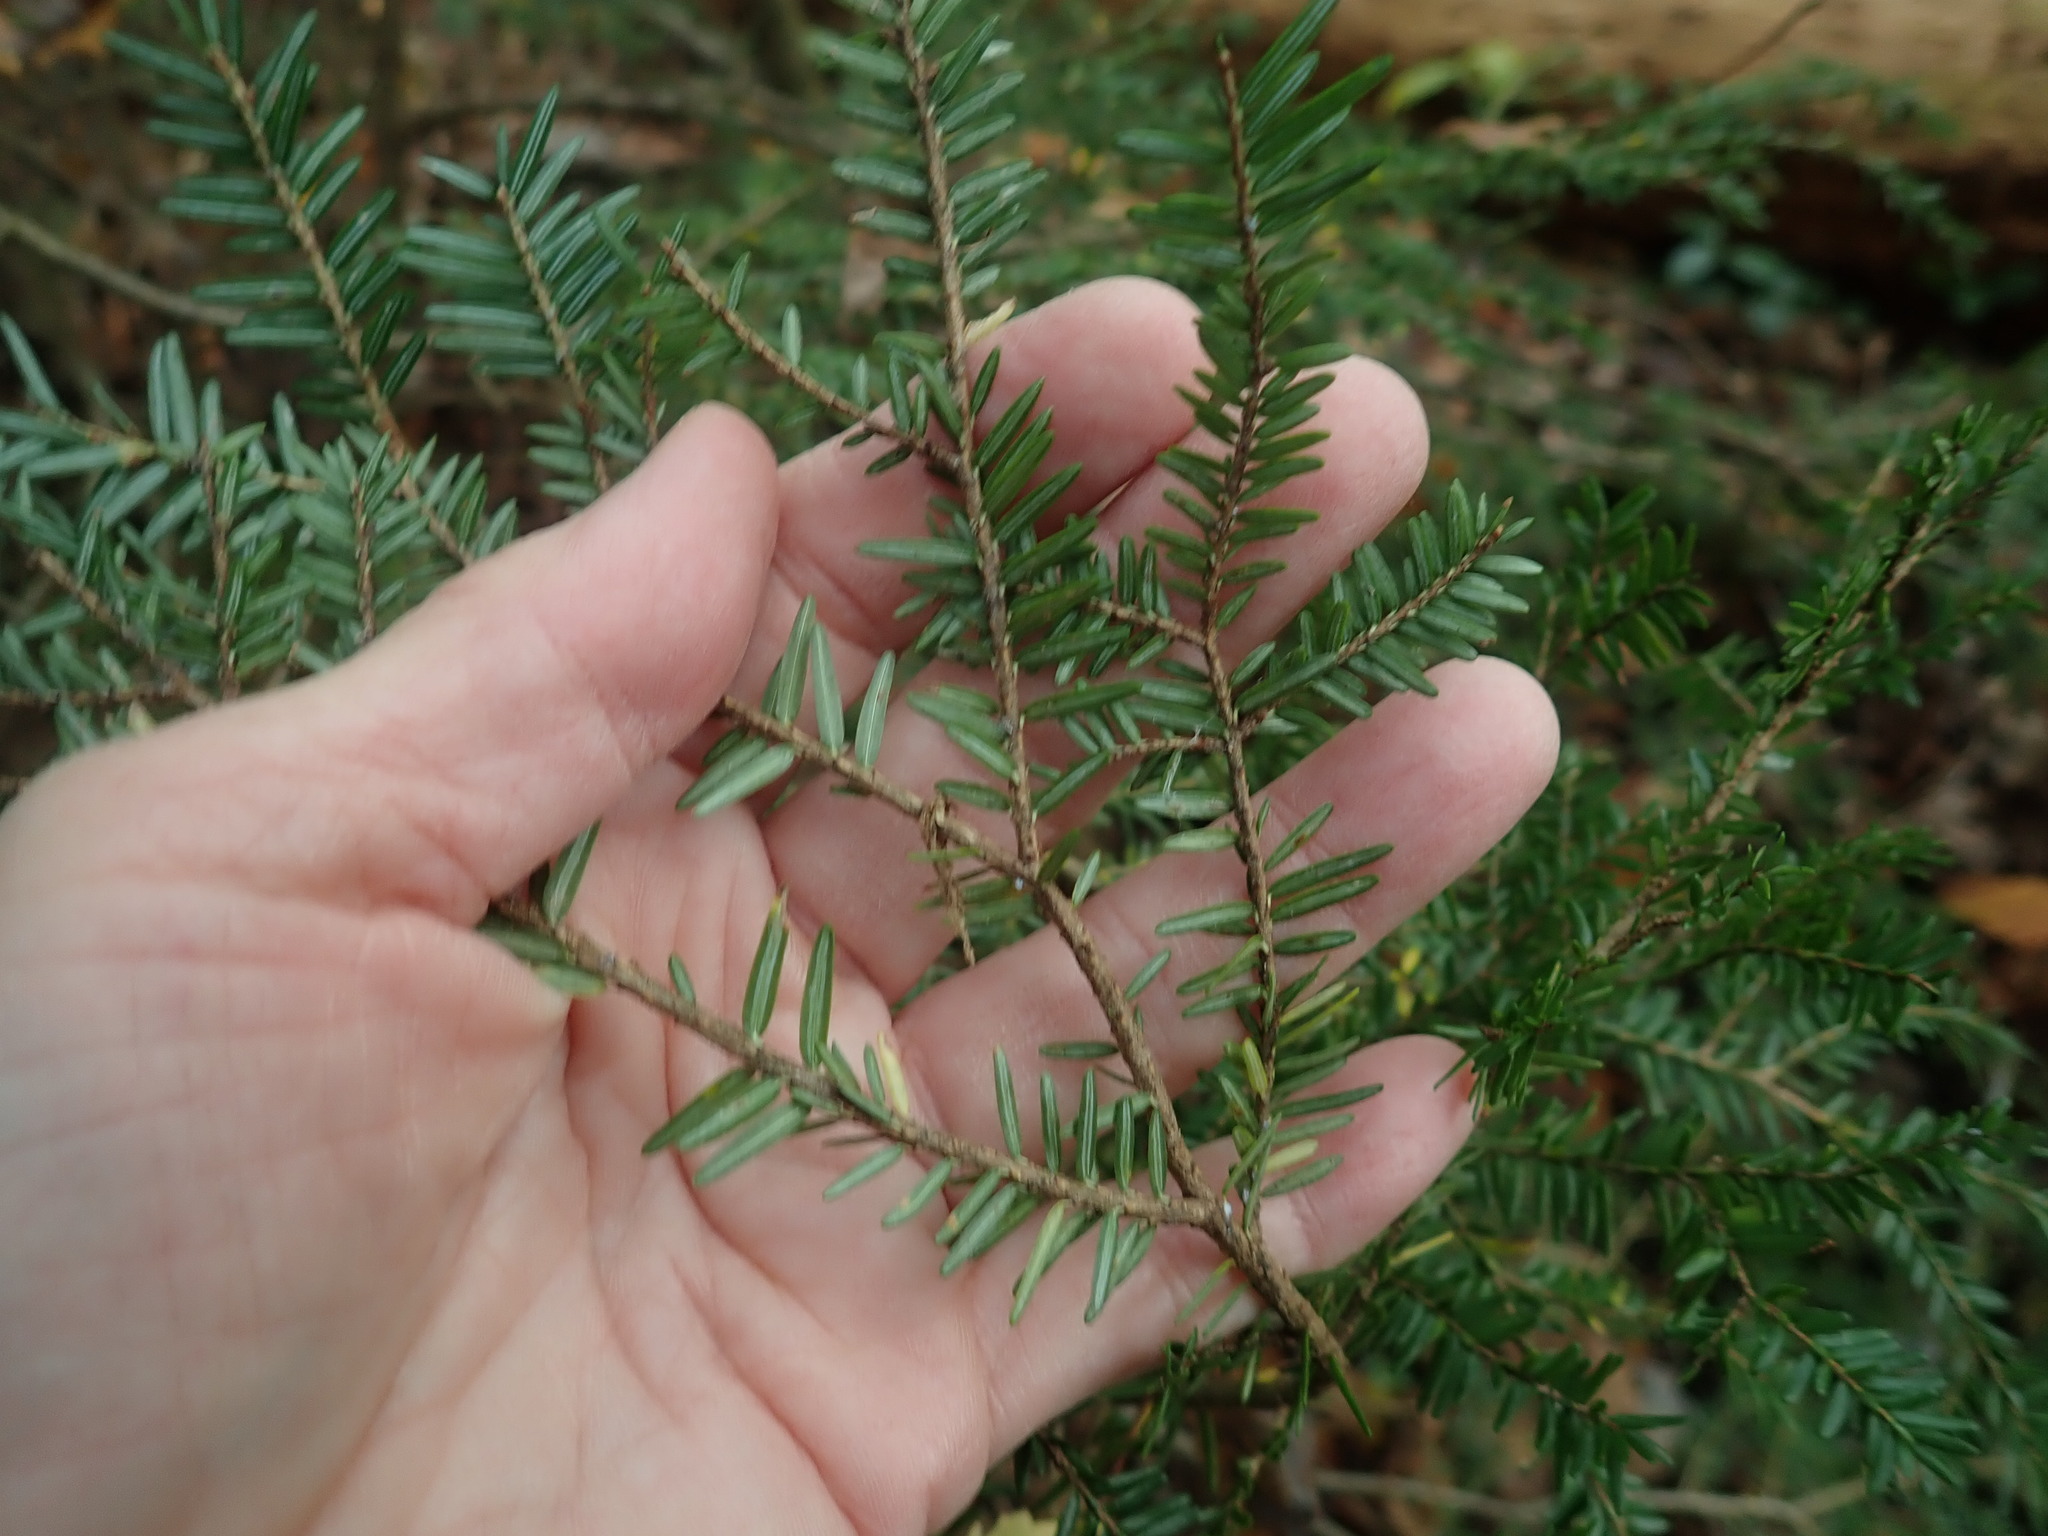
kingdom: Plantae
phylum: Tracheophyta
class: Pinopsida
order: Pinales
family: Pinaceae
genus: Tsuga
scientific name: Tsuga canadensis
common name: Eastern hemlock
